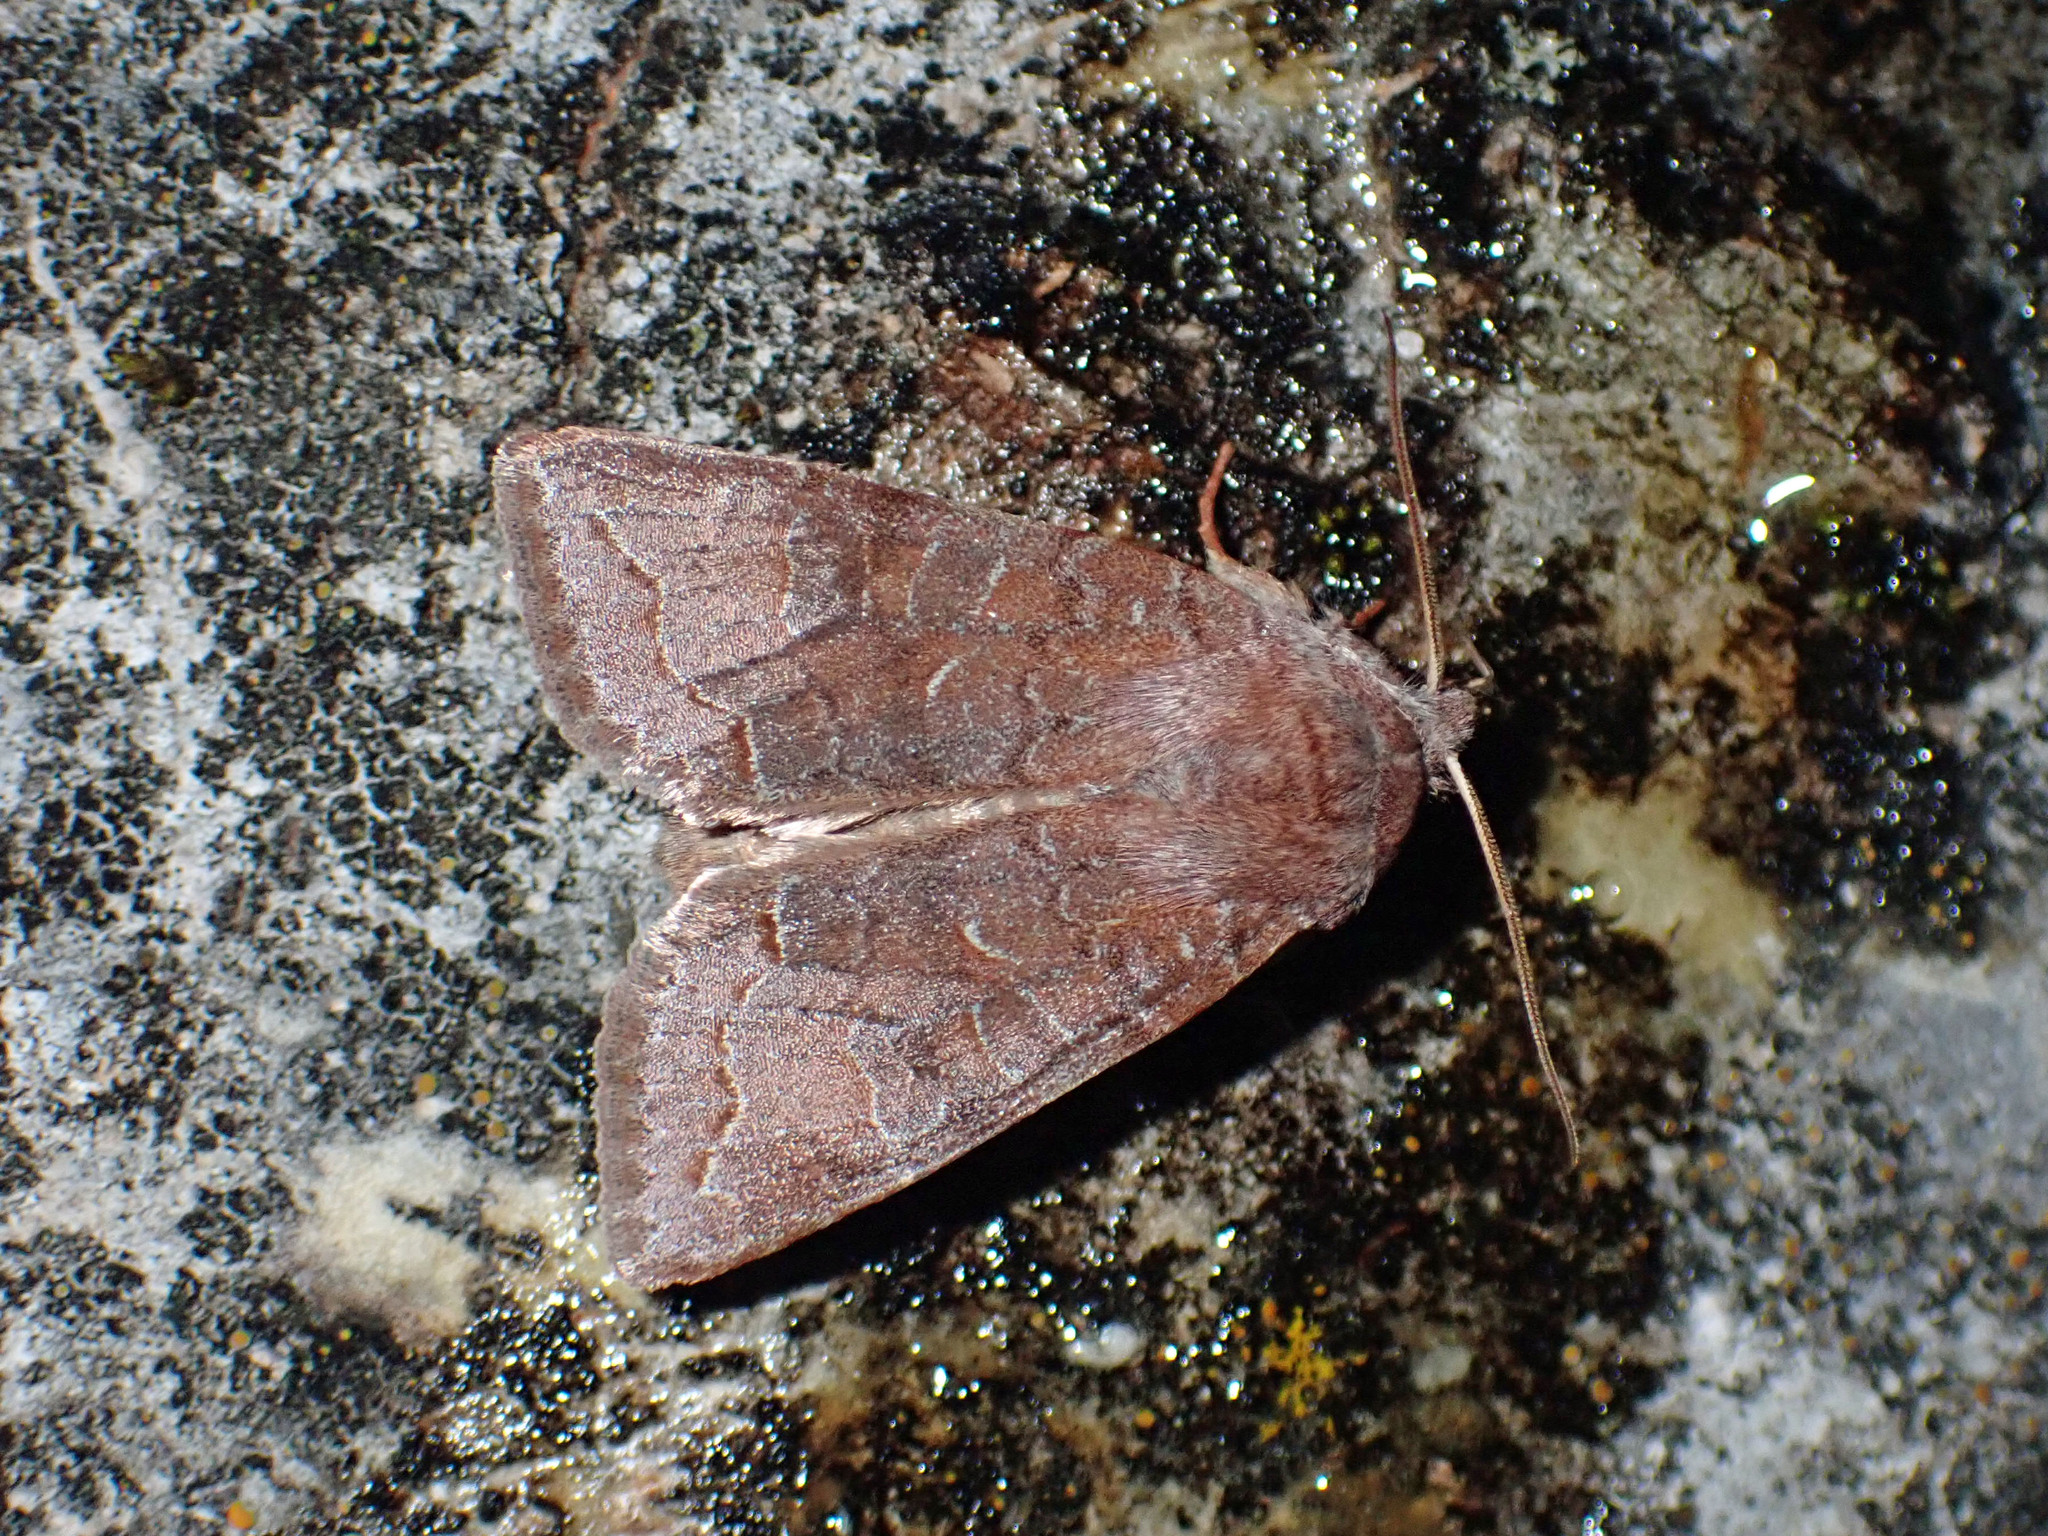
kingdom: Animalia
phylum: Arthropoda
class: Insecta
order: Lepidoptera
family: Noctuidae
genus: Orthosia
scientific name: Orthosia revicta
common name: Rusty whitesided caterpillar
